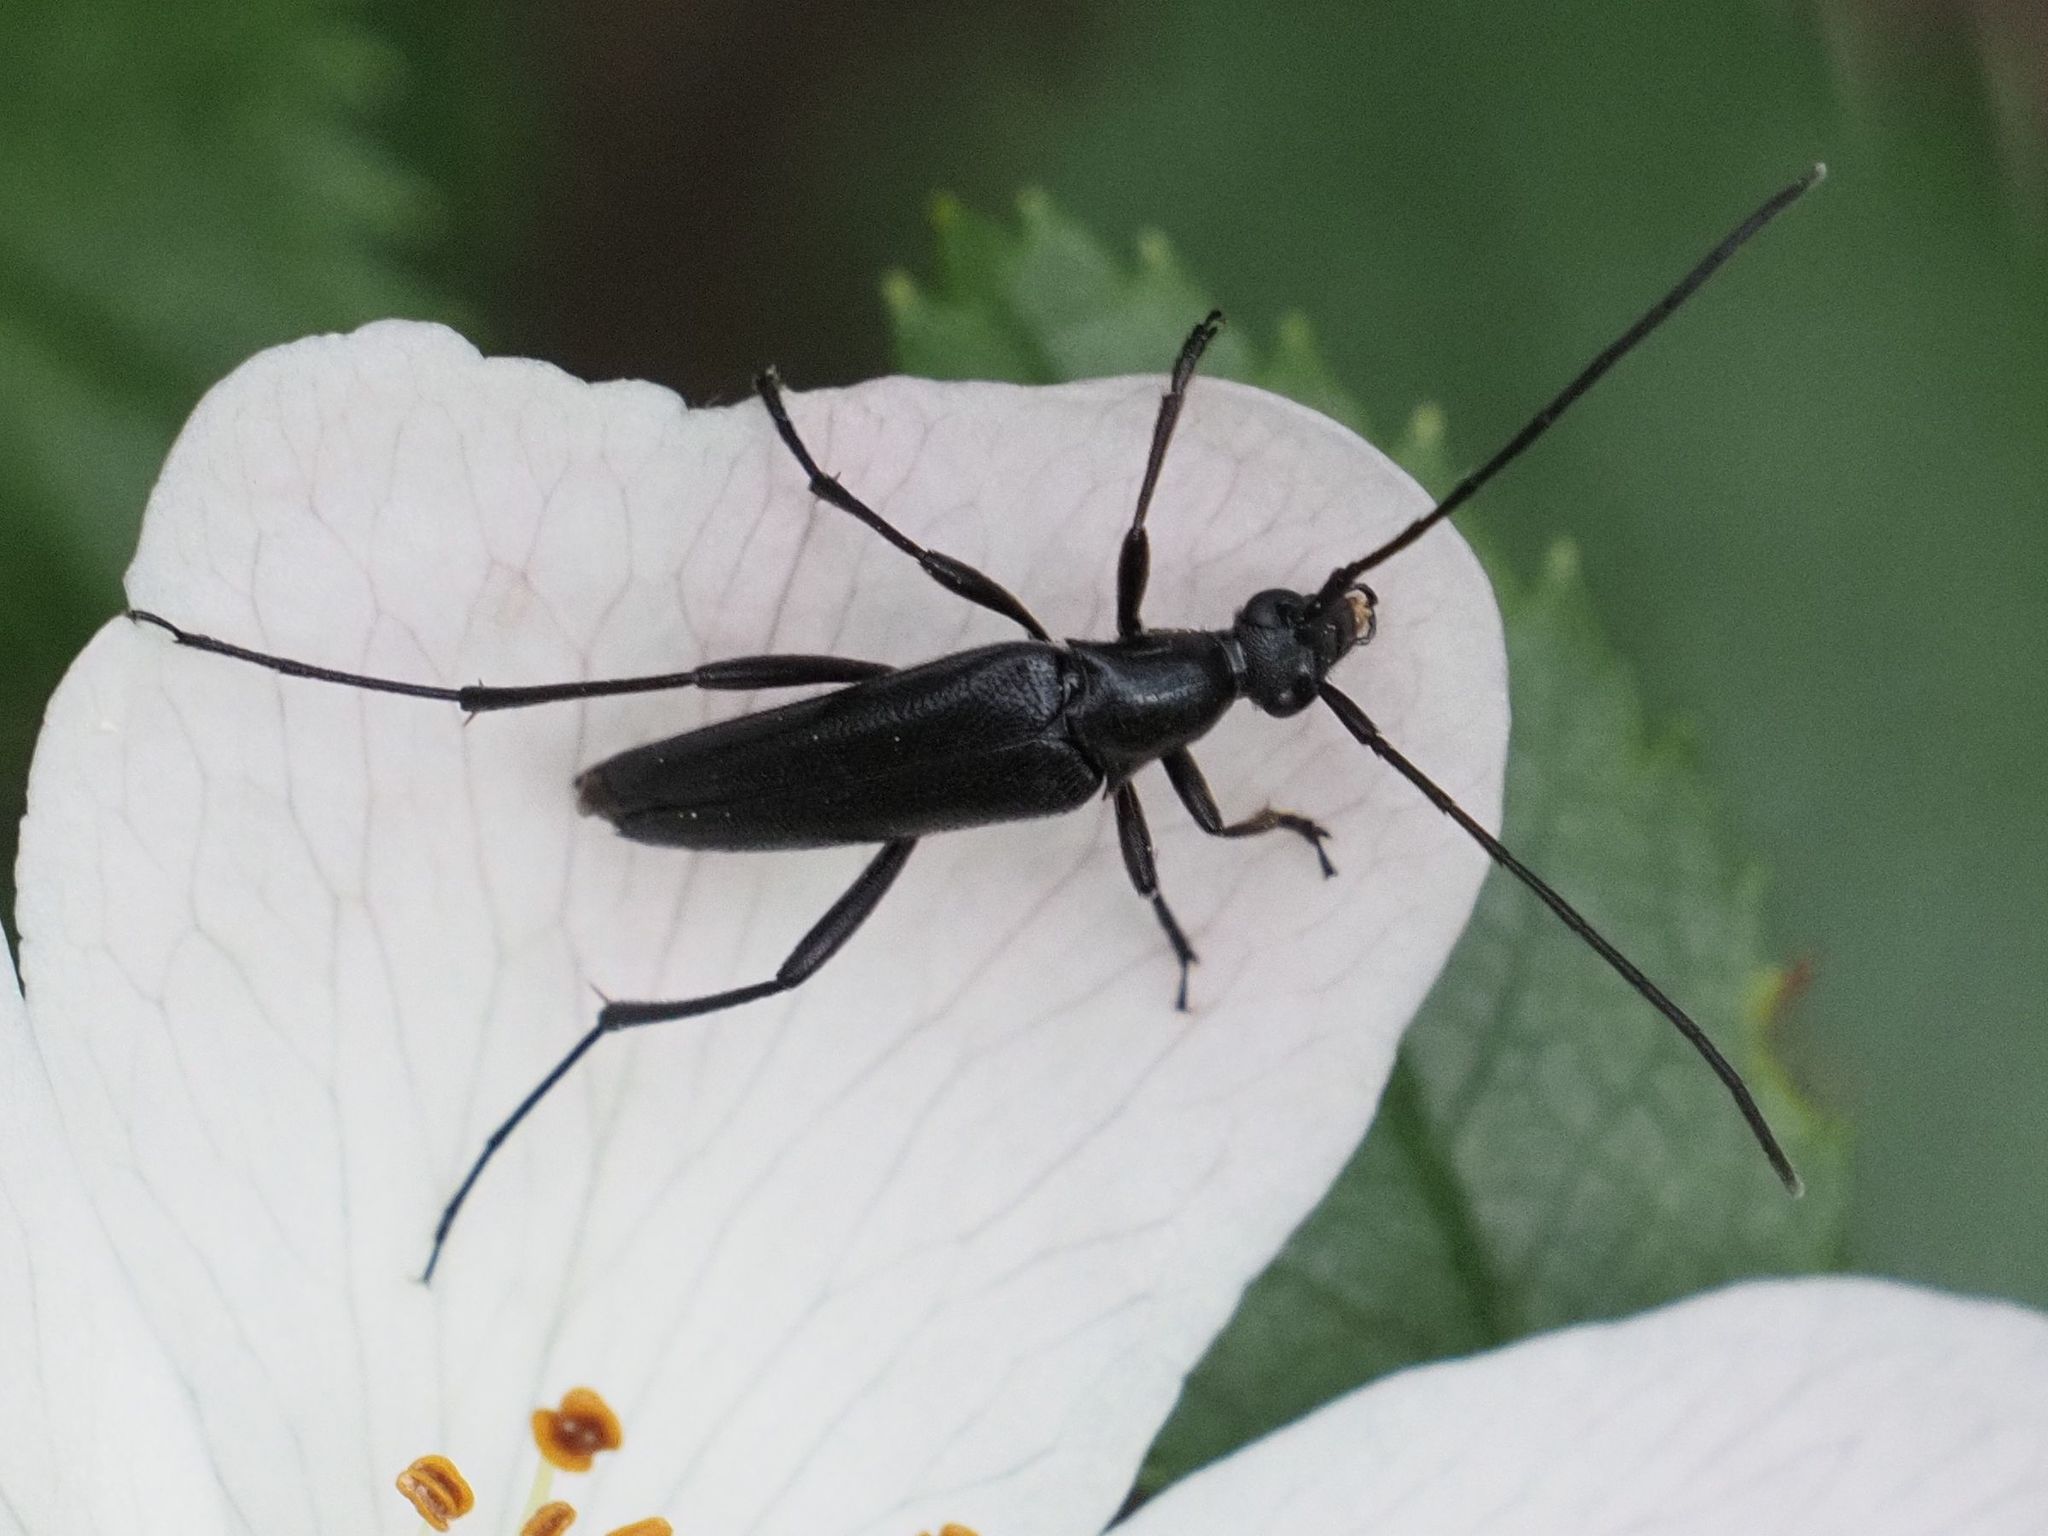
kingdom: Animalia
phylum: Arthropoda
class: Insecta
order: Coleoptera
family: Cerambycidae
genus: Stenurella
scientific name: Stenurella nigra
